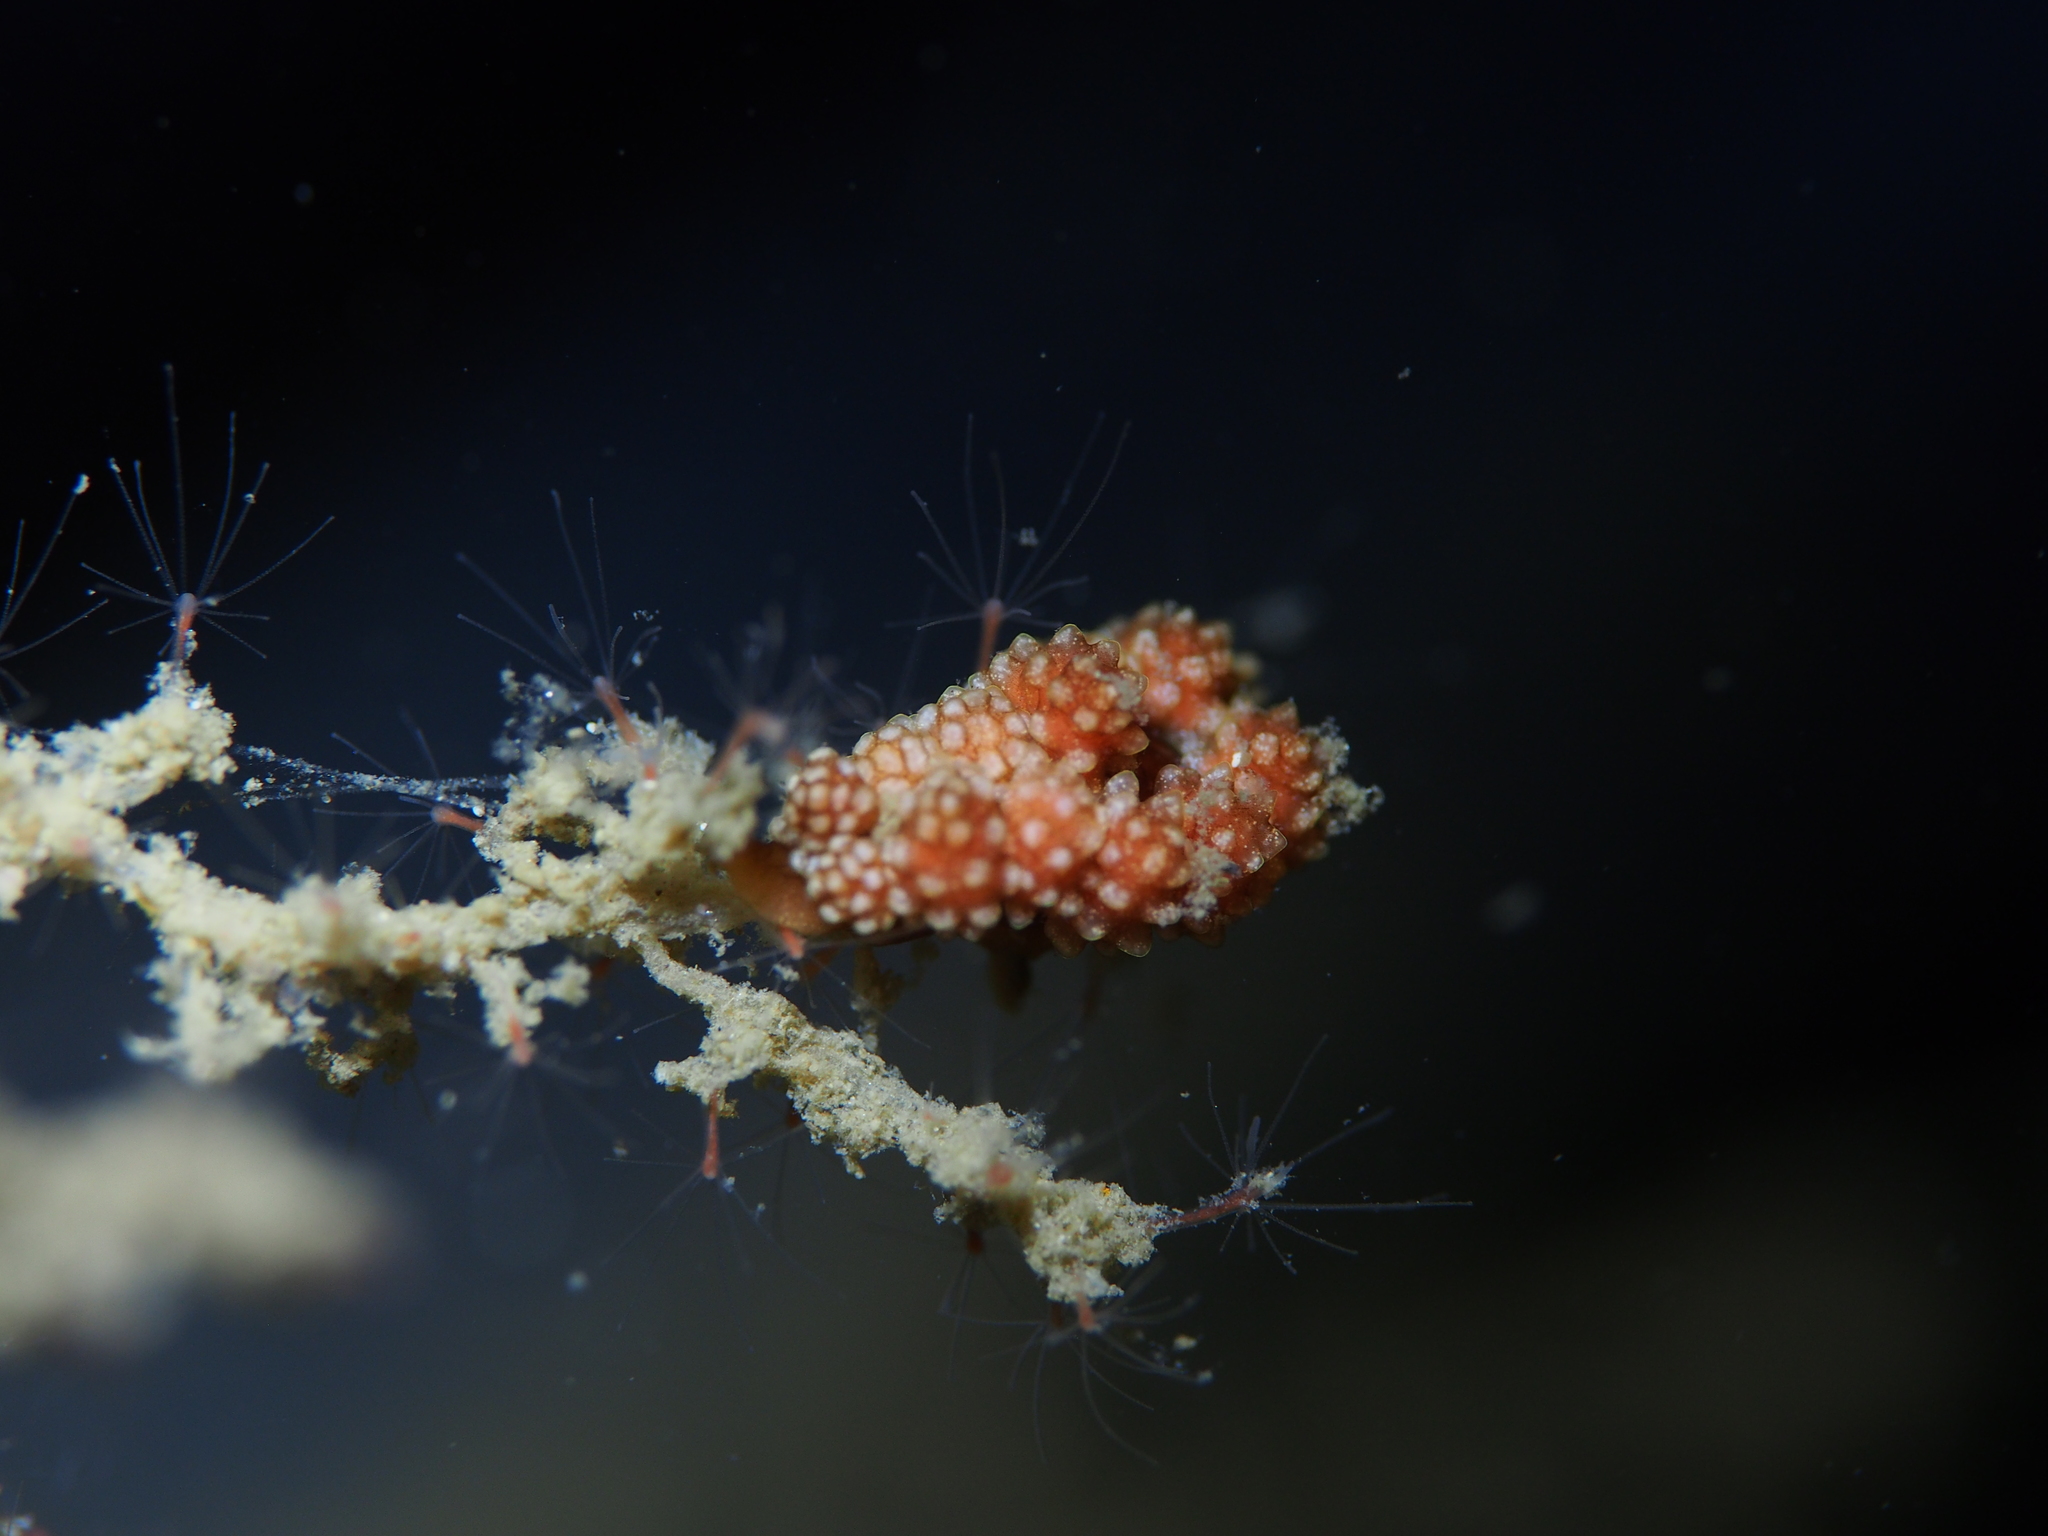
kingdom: Animalia
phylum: Mollusca
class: Gastropoda
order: Nudibranchia
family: Dotidae
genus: Doto
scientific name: Doto fragilis
